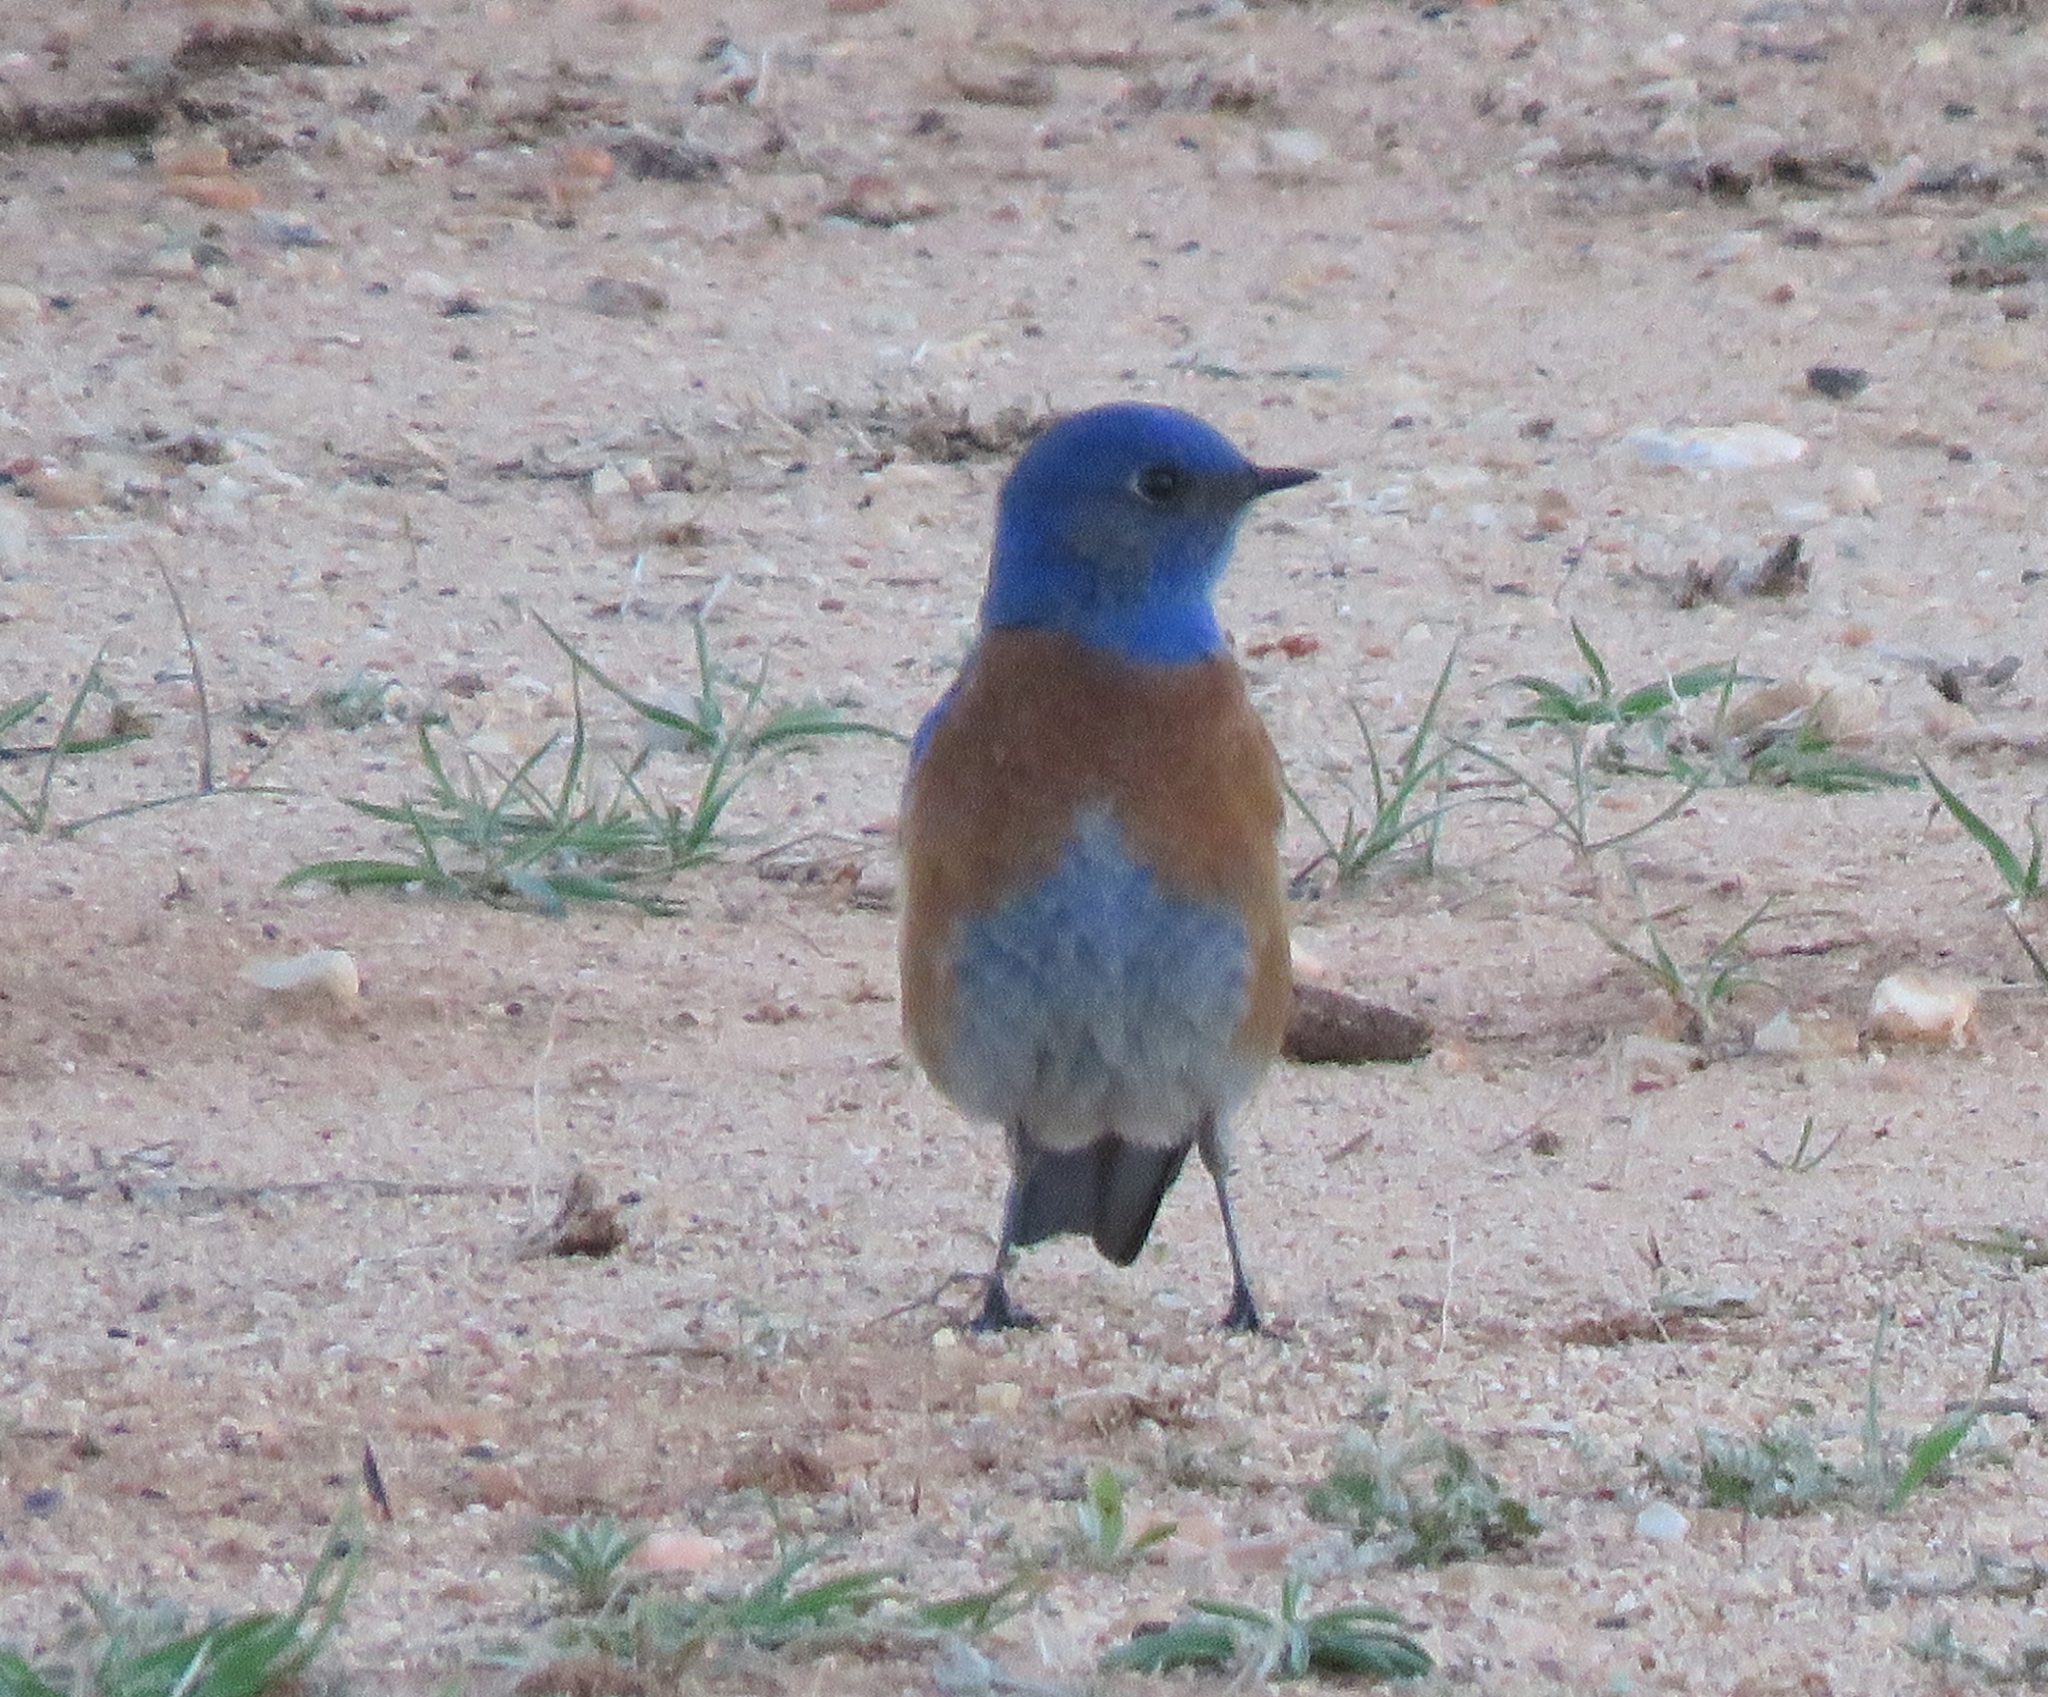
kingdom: Animalia
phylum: Chordata
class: Aves
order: Passeriformes
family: Turdidae
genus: Sialia
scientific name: Sialia mexicana
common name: Western bluebird
